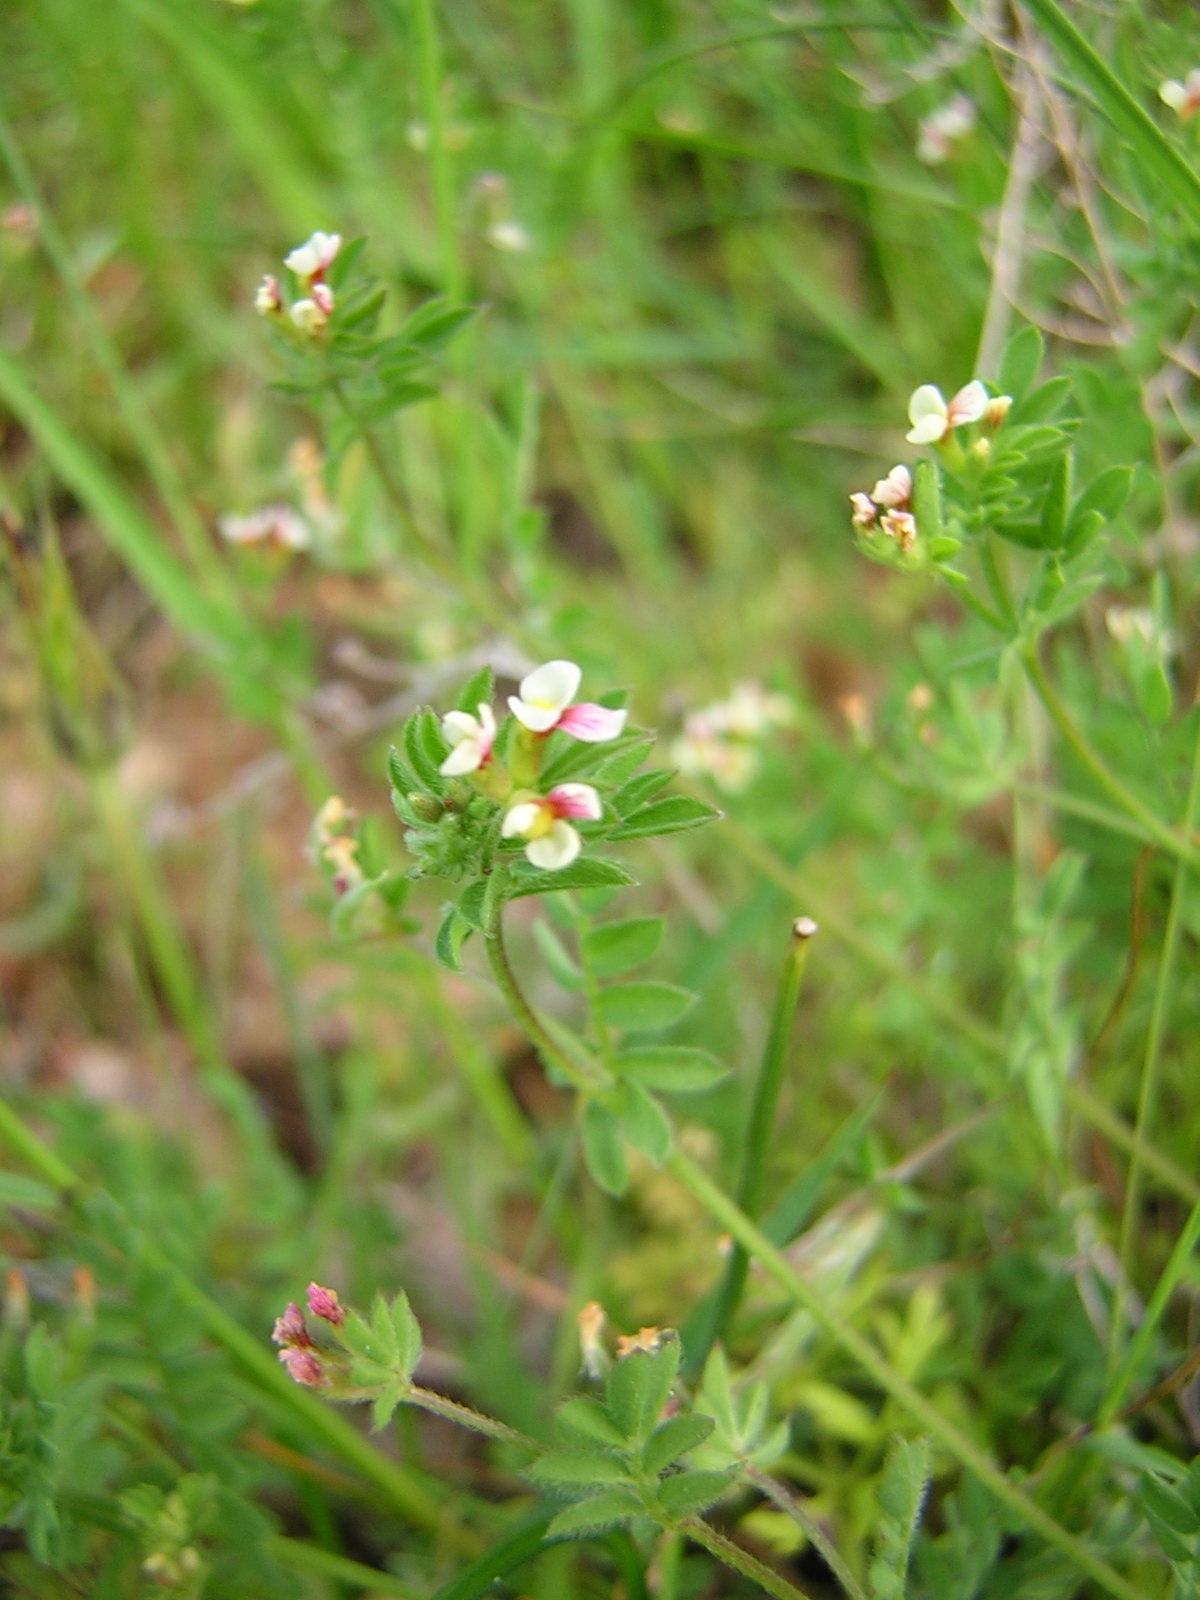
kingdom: Plantae
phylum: Tracheophyta
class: Magnoliopsida
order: Fabales
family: Fabaceae
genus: Ornithopus
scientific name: Ornithopus perpusillus
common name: Bird's-foot
